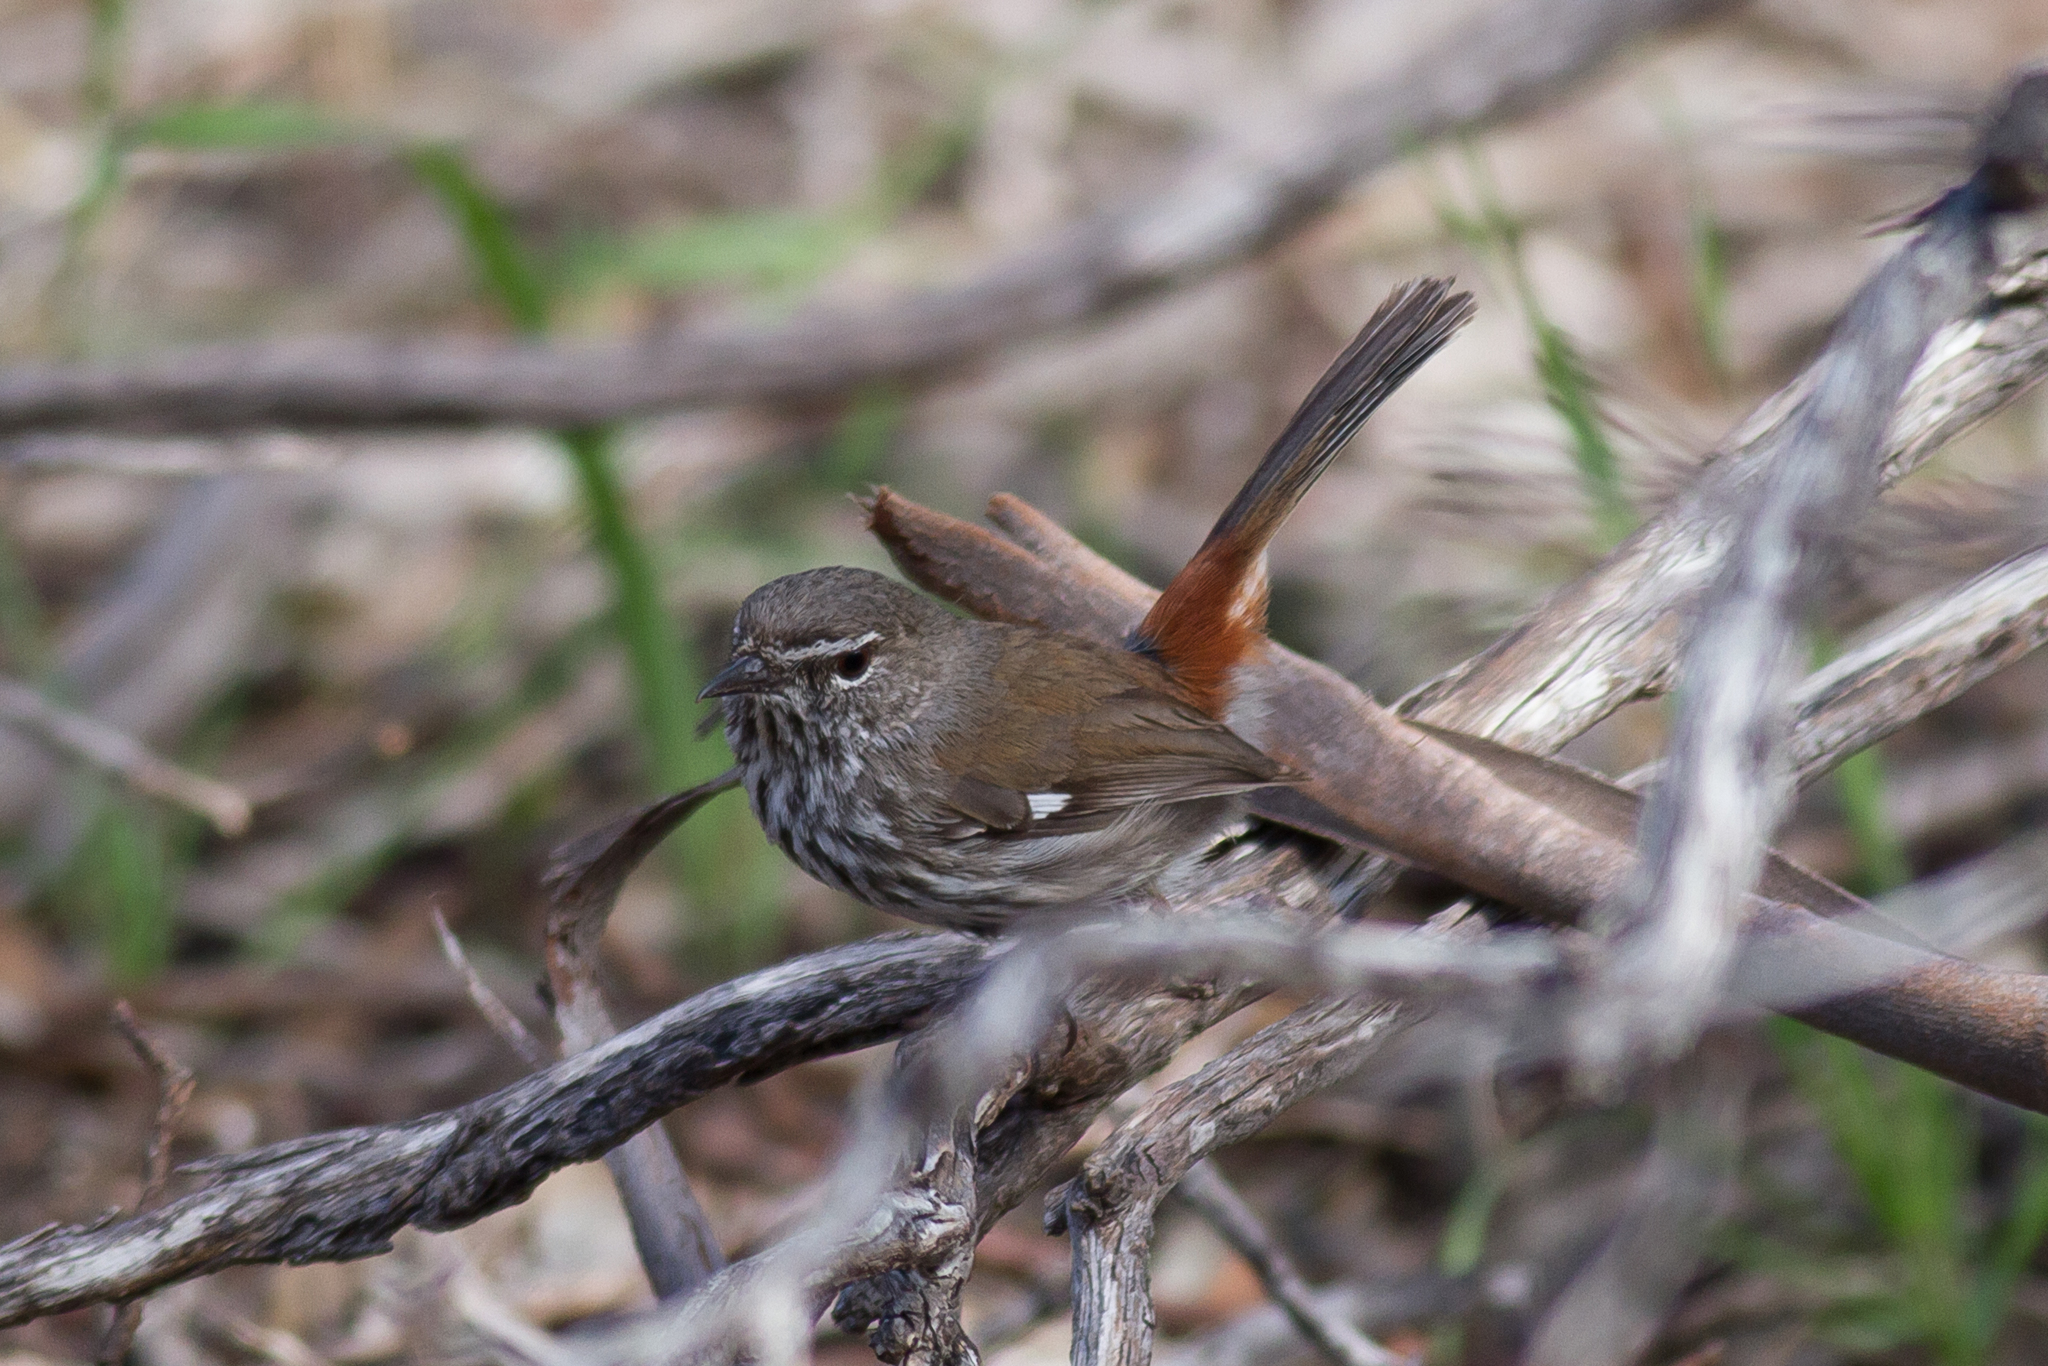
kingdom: Animalia
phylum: Chordata
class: Aves
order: Passeriformes
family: Acanthizidae
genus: Calamanthus
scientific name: Calamanthus cautus
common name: Shy heathwren
